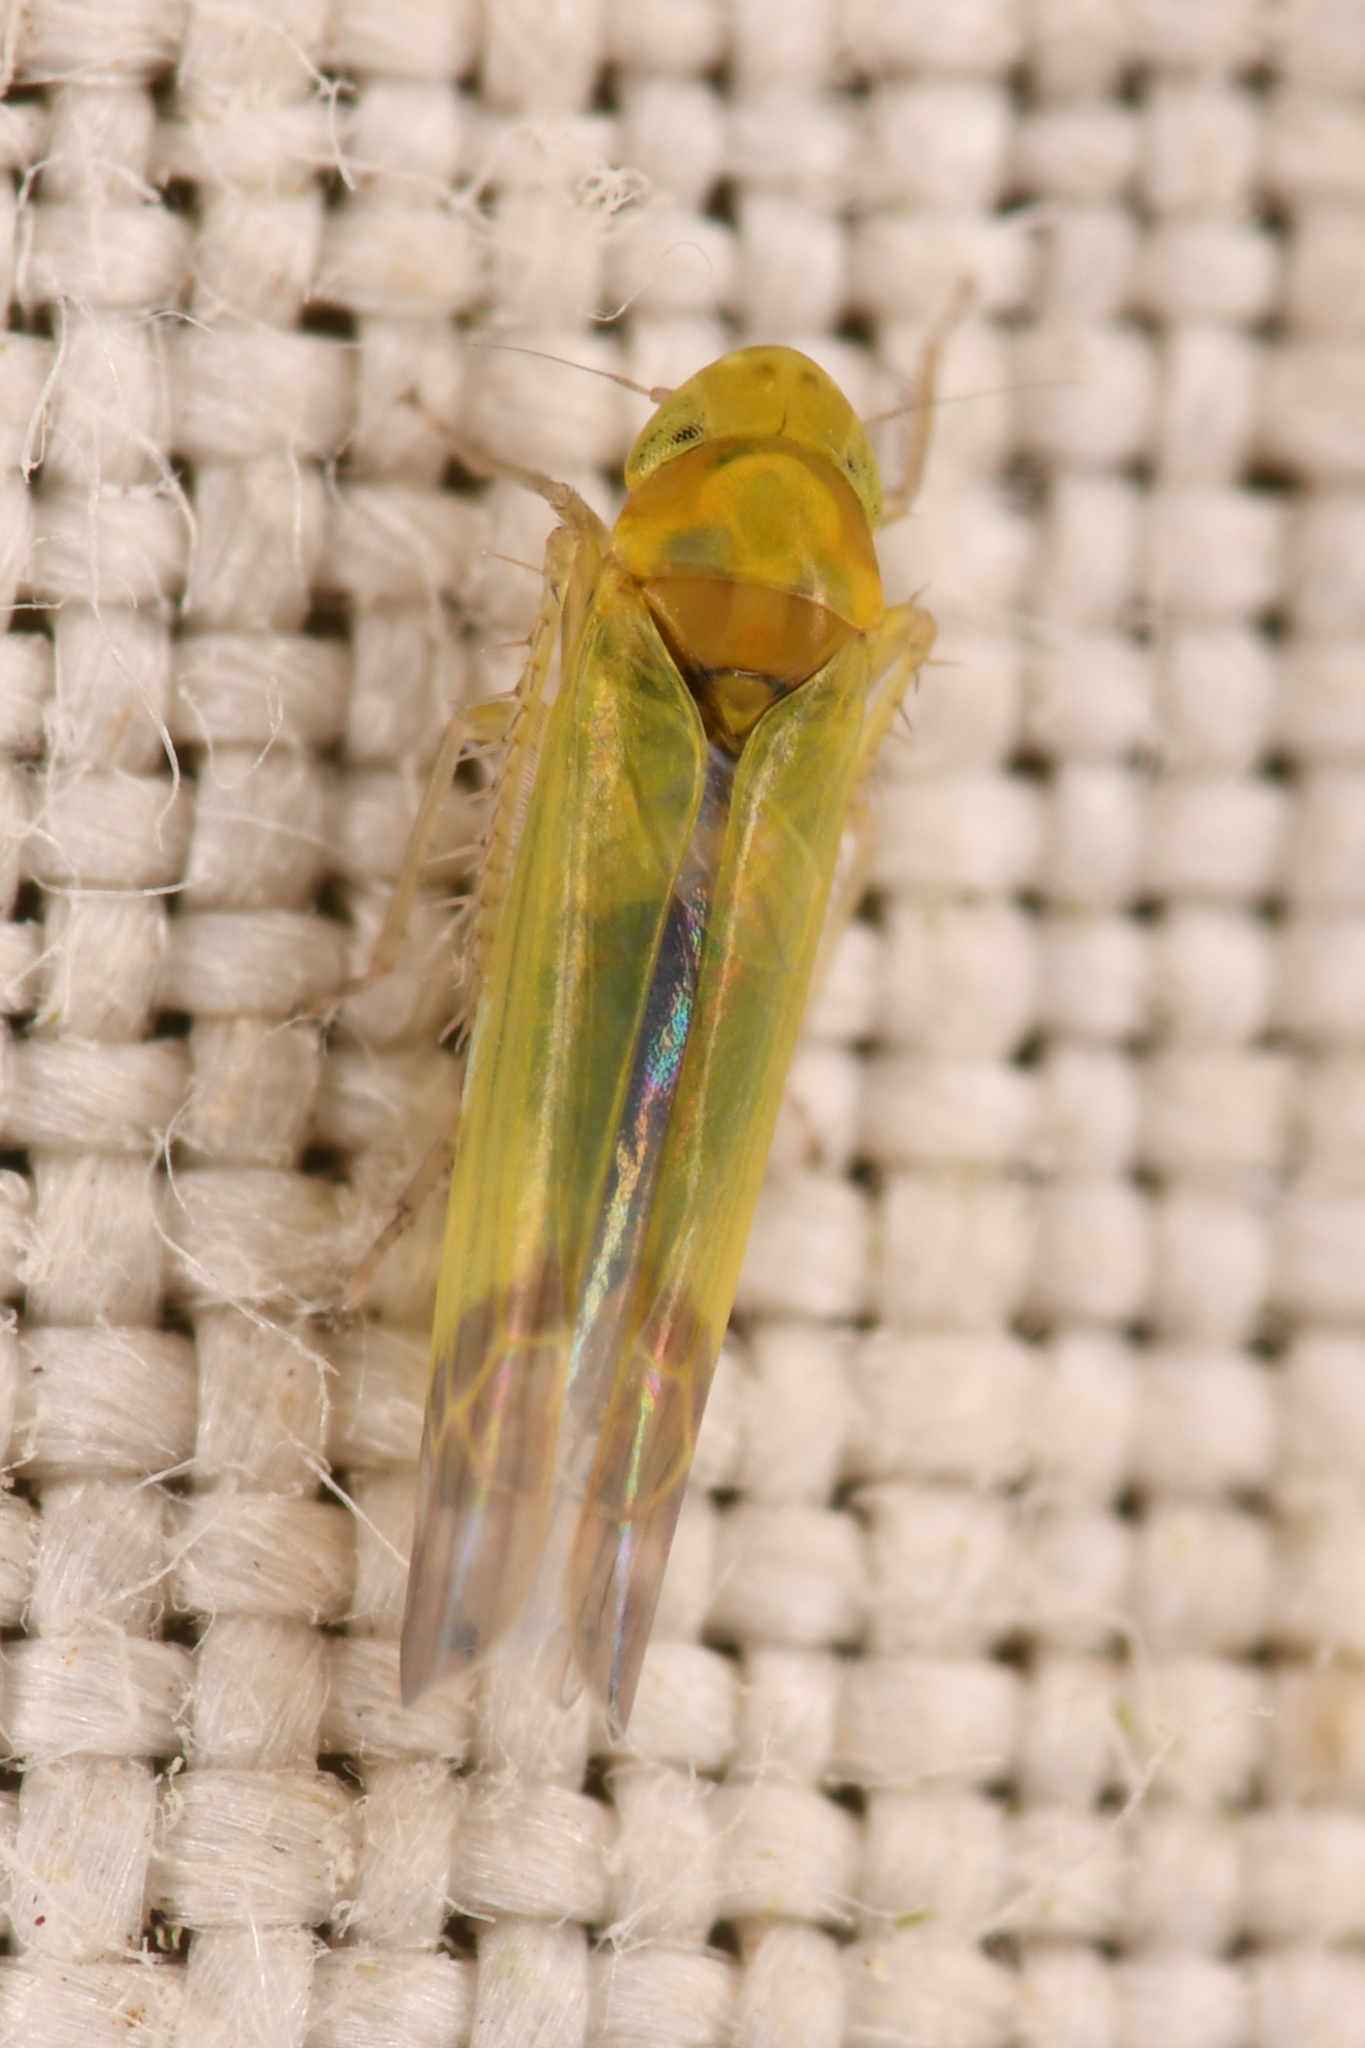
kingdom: Animalia
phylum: Arthropoda
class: Insecta
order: Hemiptera
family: Cicadellidae
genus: Eupteryx
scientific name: Eupteryx filicum
